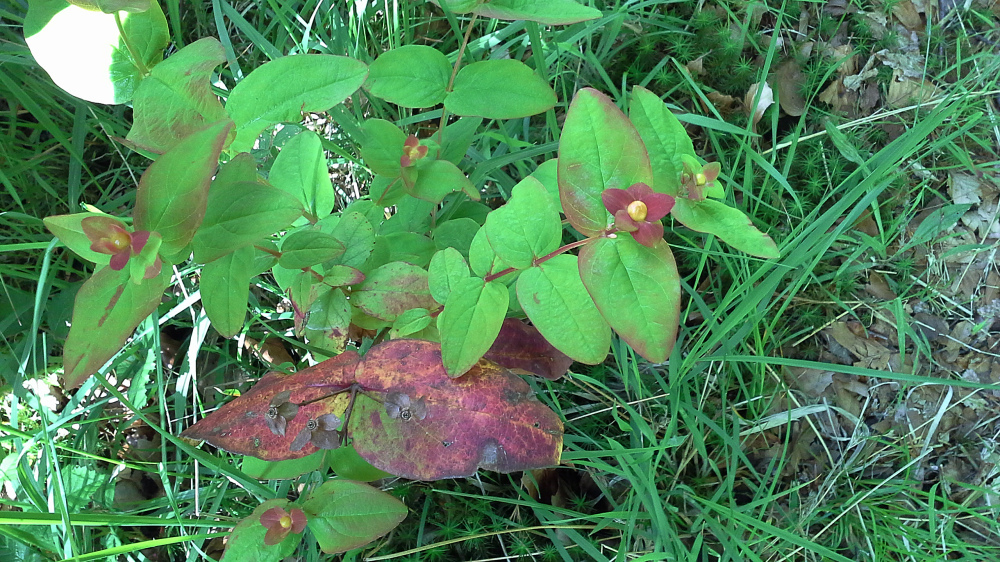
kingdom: Plantae
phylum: Tracheophyta
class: Magnoliopsida
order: Malpighiales
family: Hypericaceae
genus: Hypericum
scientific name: Hypericum androsaemum
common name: Sweet-amber
